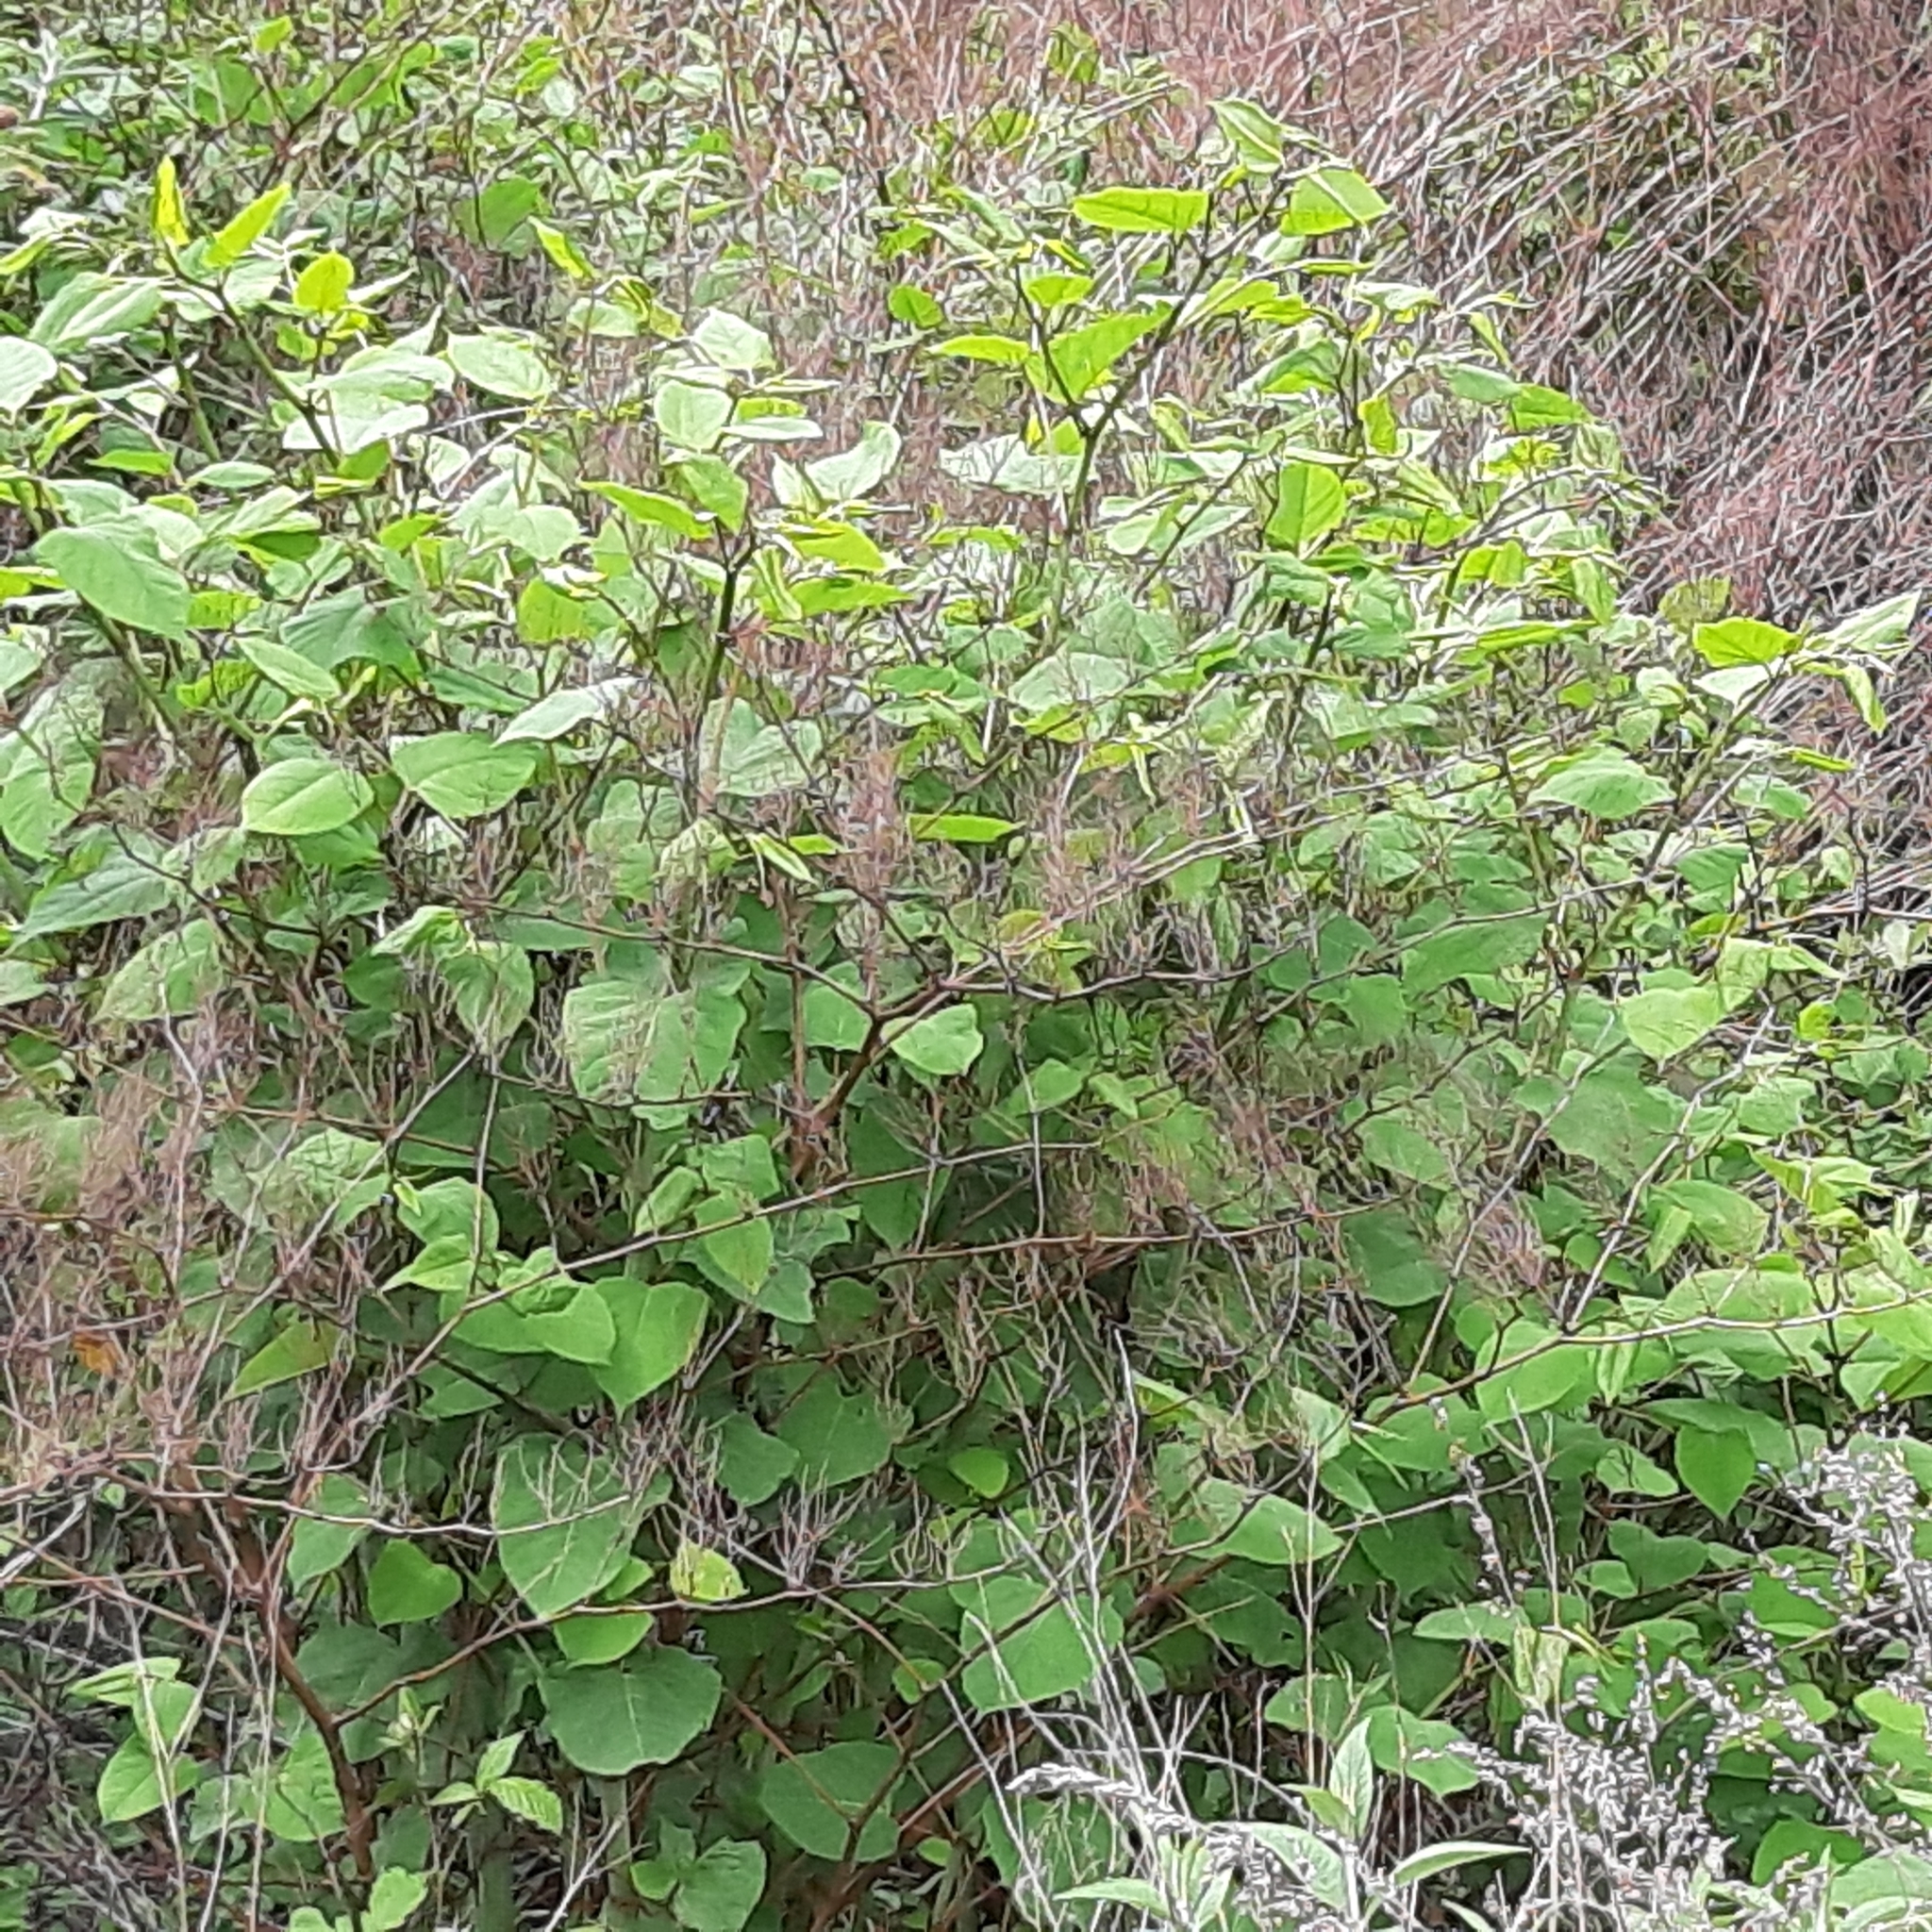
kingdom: Plantae
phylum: Tracheophyta
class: Magnoliopsida
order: Caryophyllales
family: Polygonaceae
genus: Reynoutria
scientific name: Reynoutria japonica
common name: Japanese knotweed
